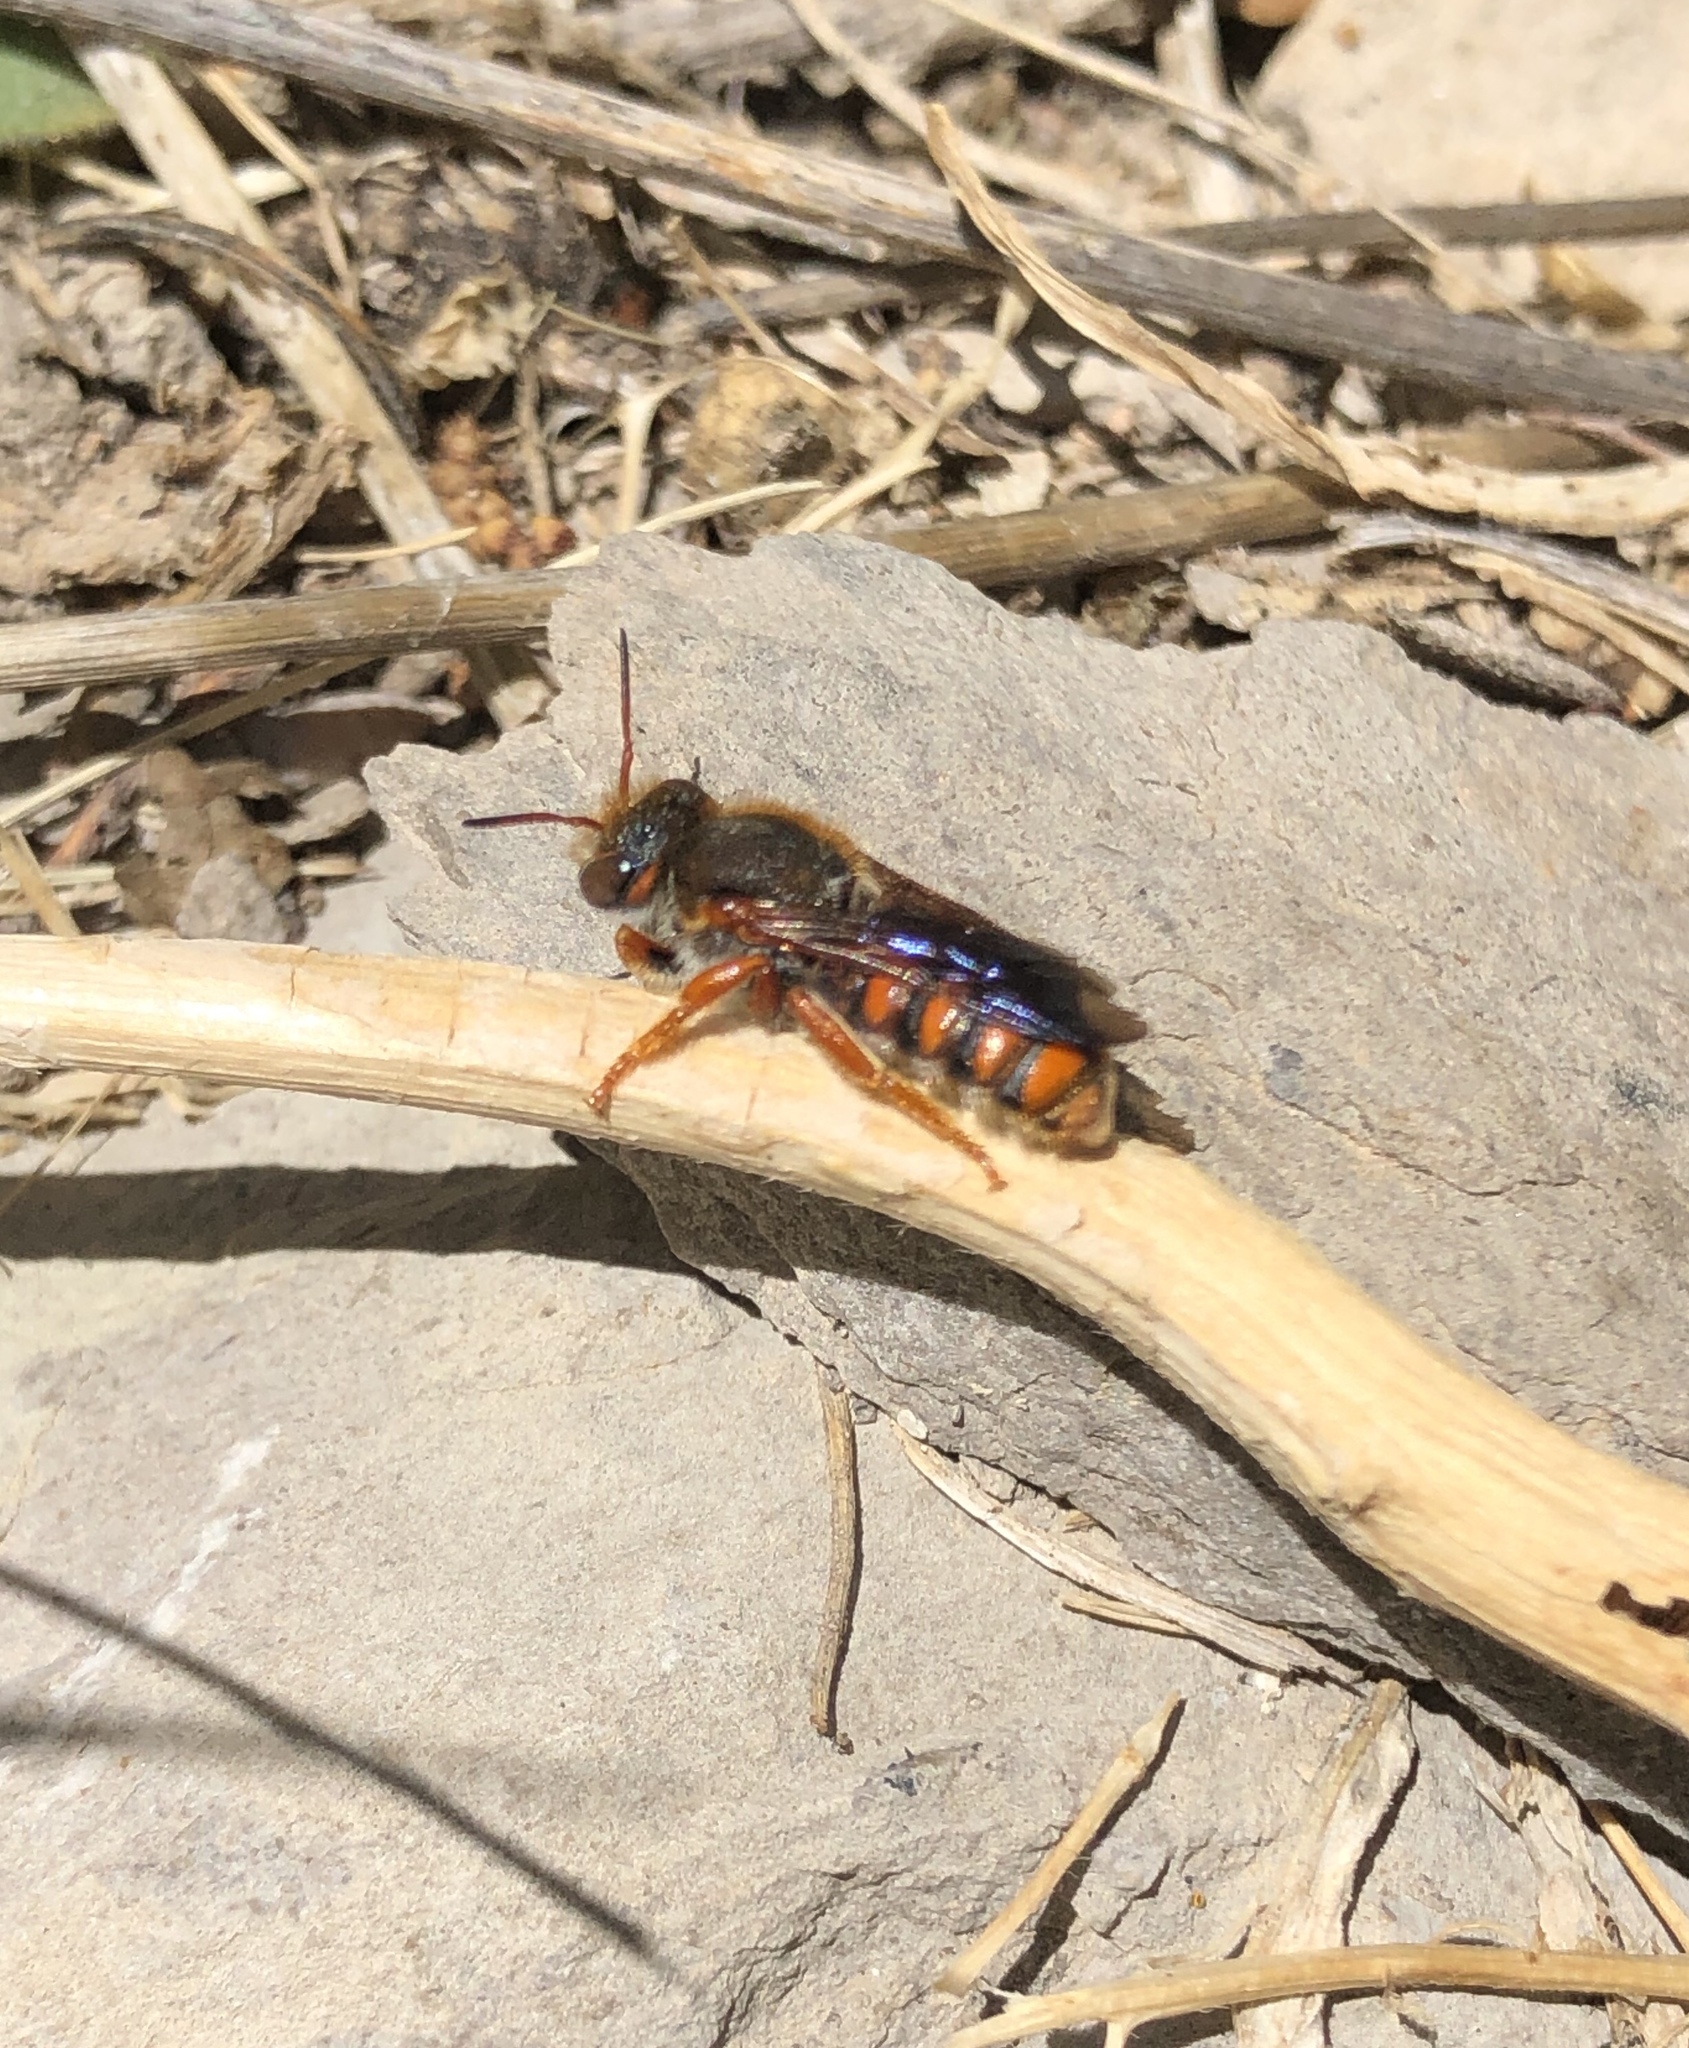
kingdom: Animalia
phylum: Arthropoda
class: Insecta
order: Hymenoptera
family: Megachilidae
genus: Rhodanthidium
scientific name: Rhodanthidium sticticum
